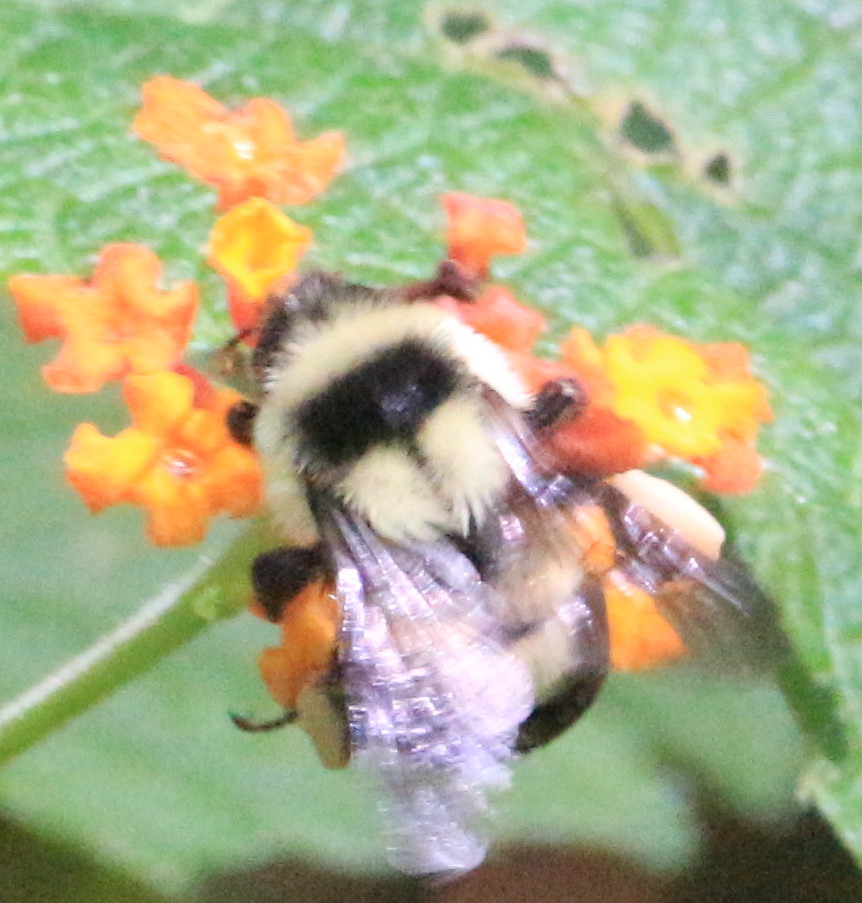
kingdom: Animalia
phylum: Arthropoda
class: Insecta
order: Hymenoptera
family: Apidae
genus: Bombus
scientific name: Bombus wilmattae
